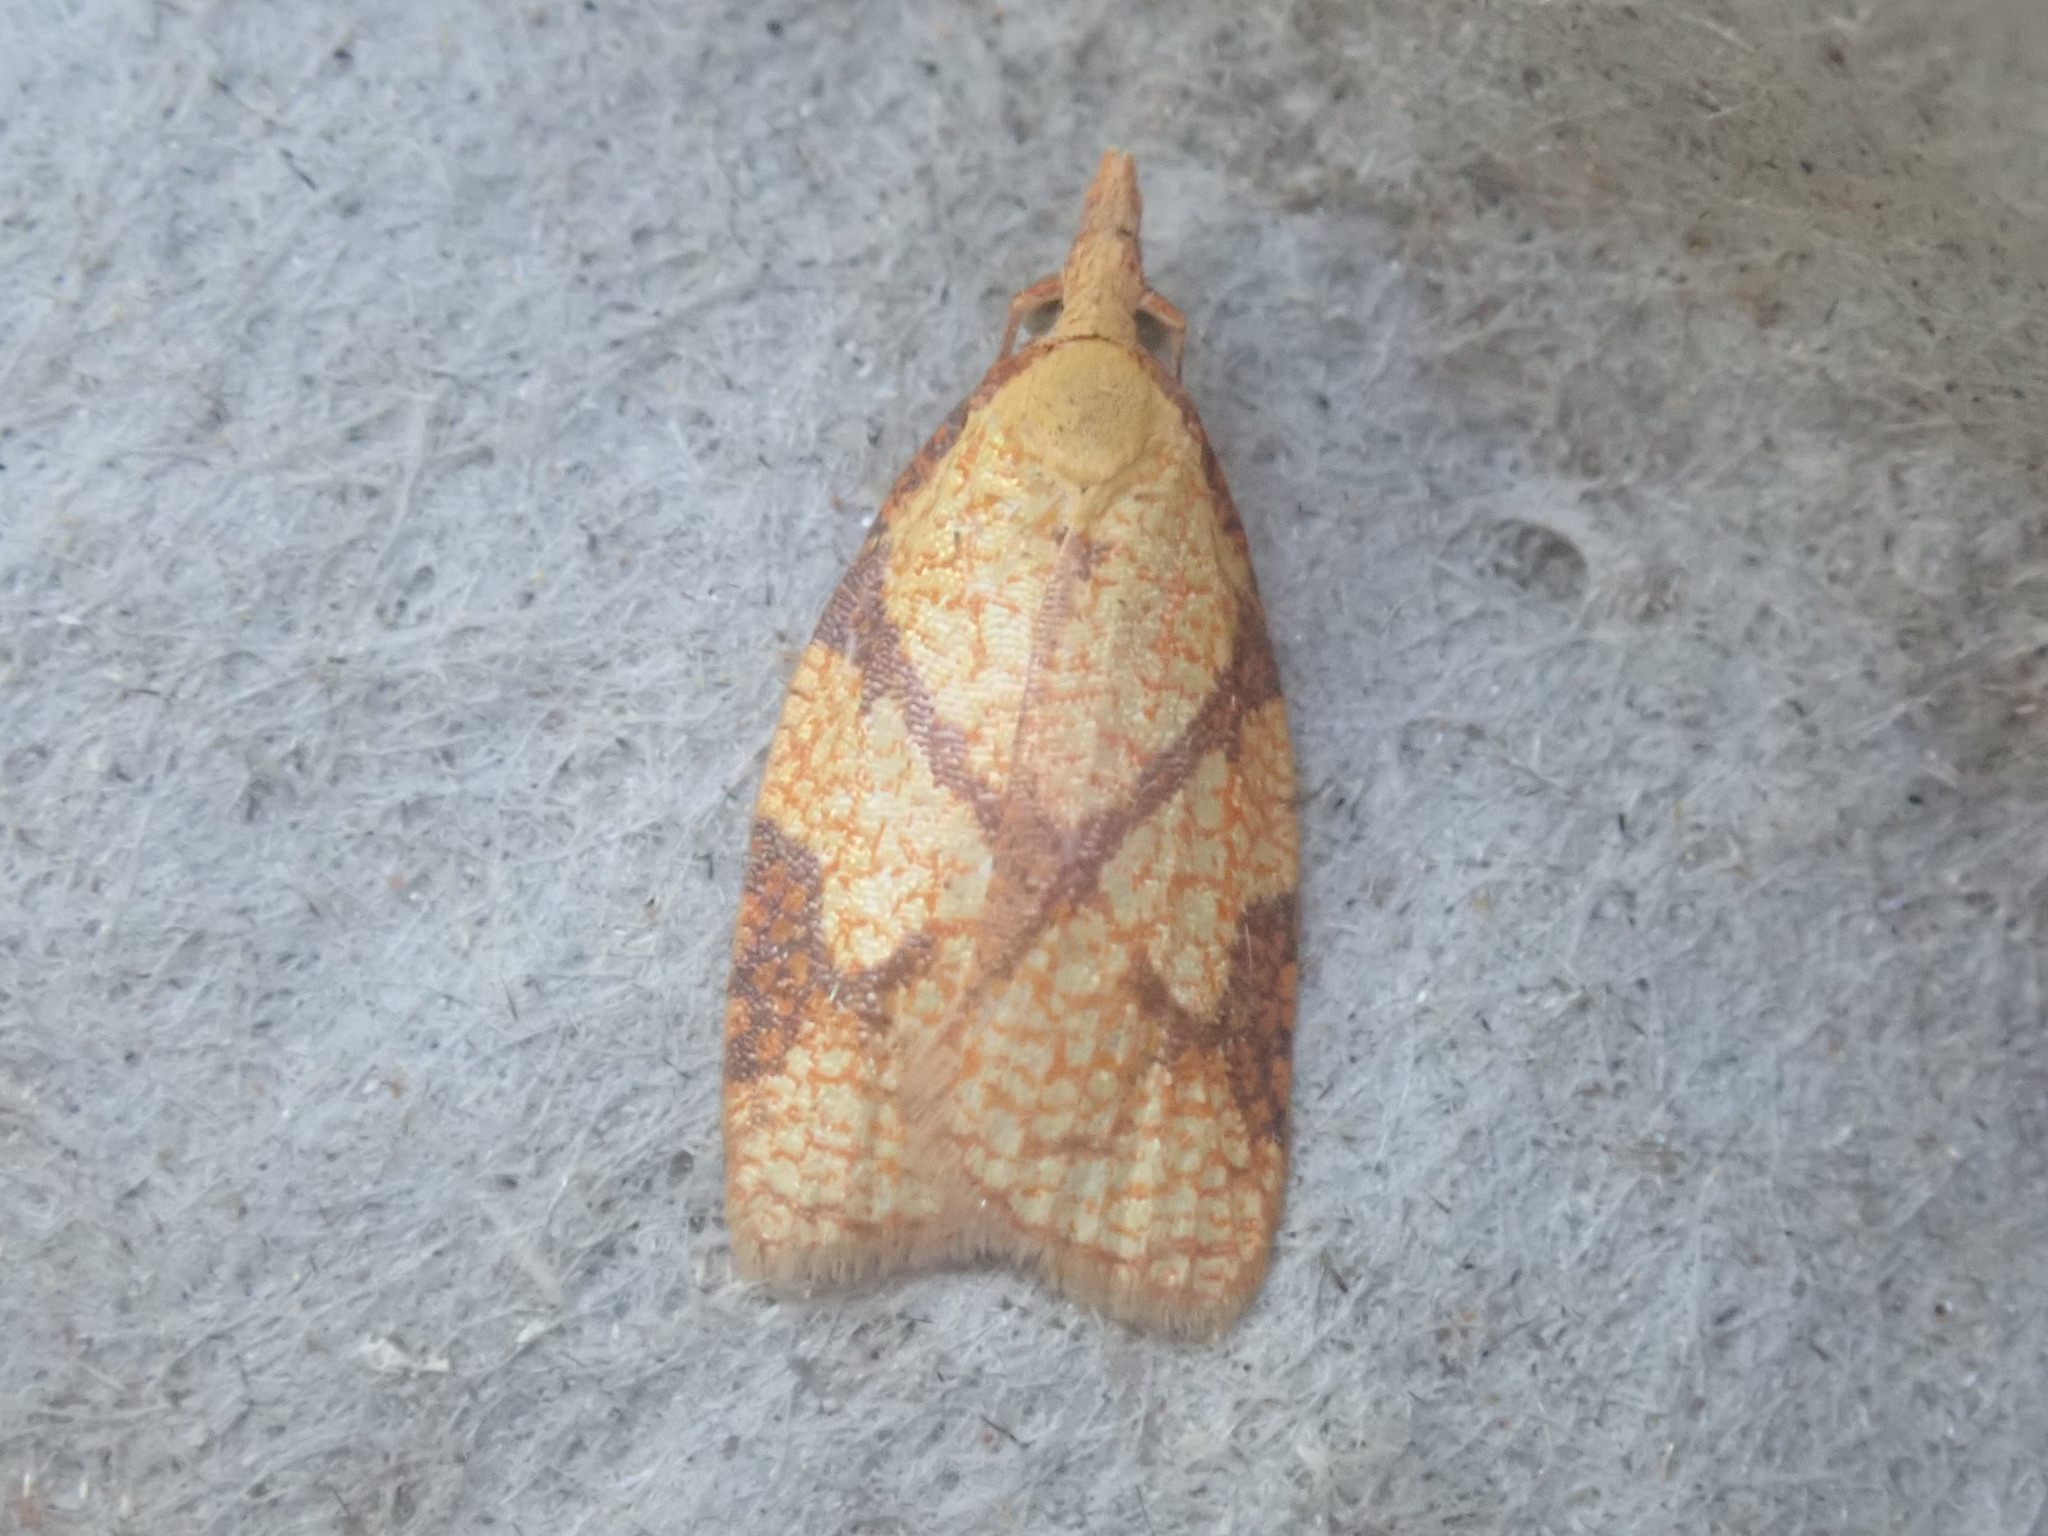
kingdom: Animalia
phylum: Arthropoda
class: Insecta
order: Lepidoptera
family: Tortricidae
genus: Cenopis
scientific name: Cenopis reticulatana
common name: Reticulated fruitworm moth
